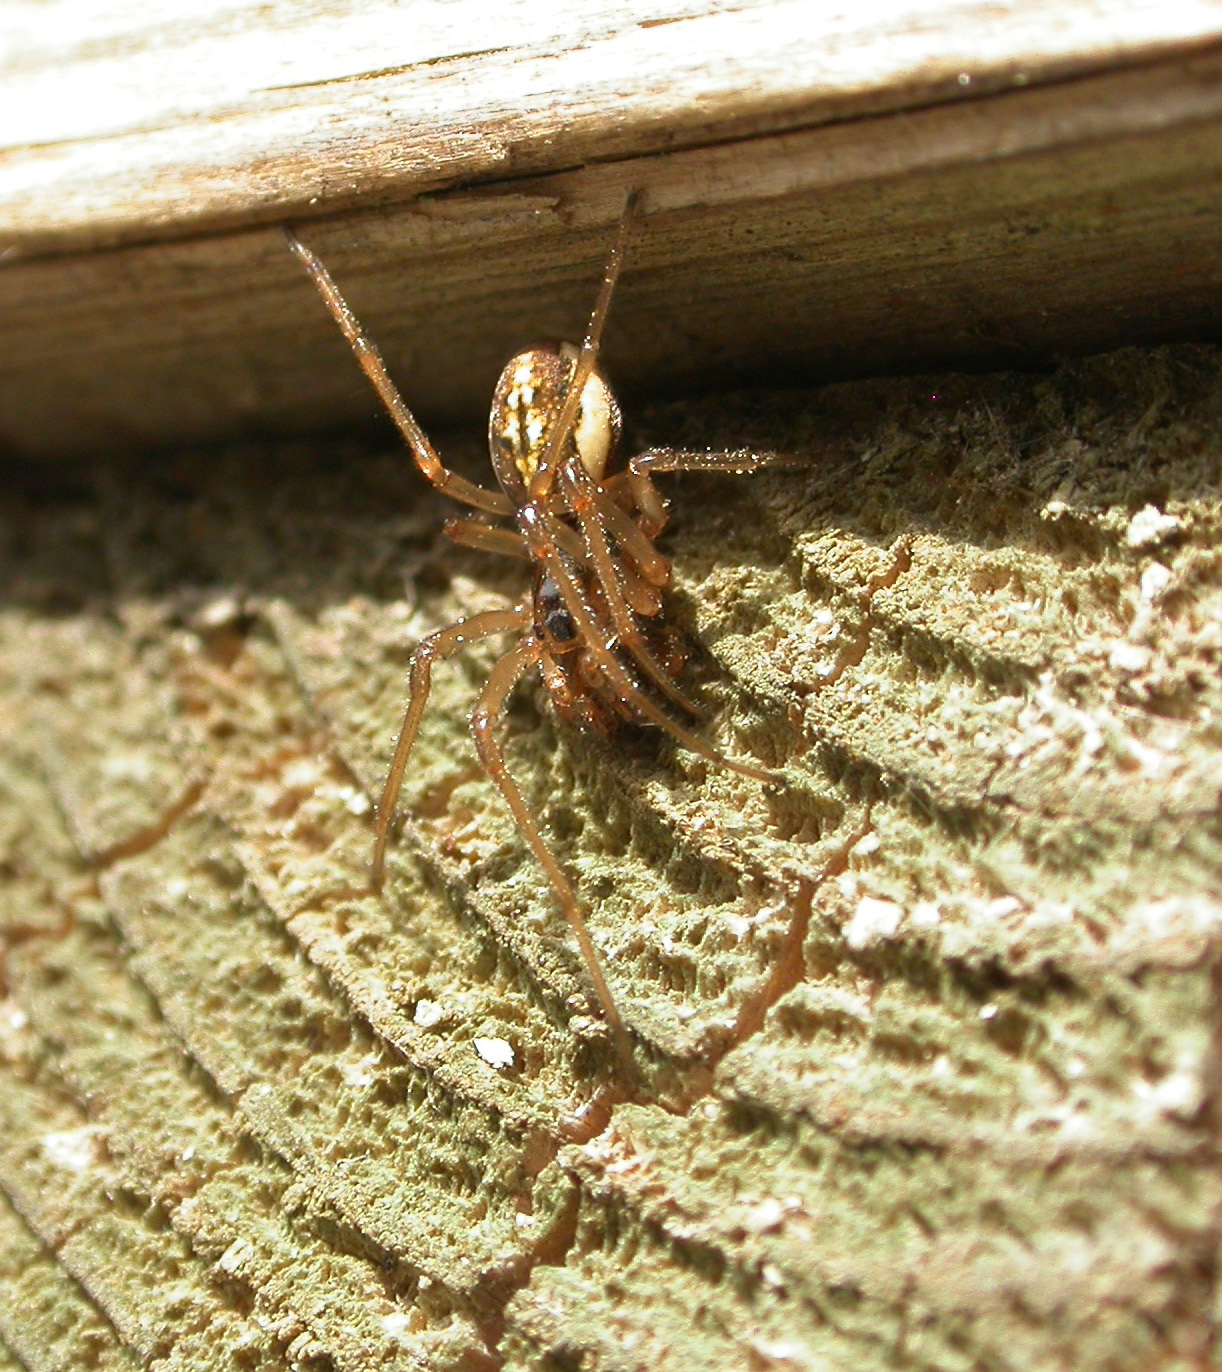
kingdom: Animalia
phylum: Arthropoda
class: Arachnida
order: Araneae
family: Tetragnathidae
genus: Pachygnatha
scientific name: Pachygnatha clercki
